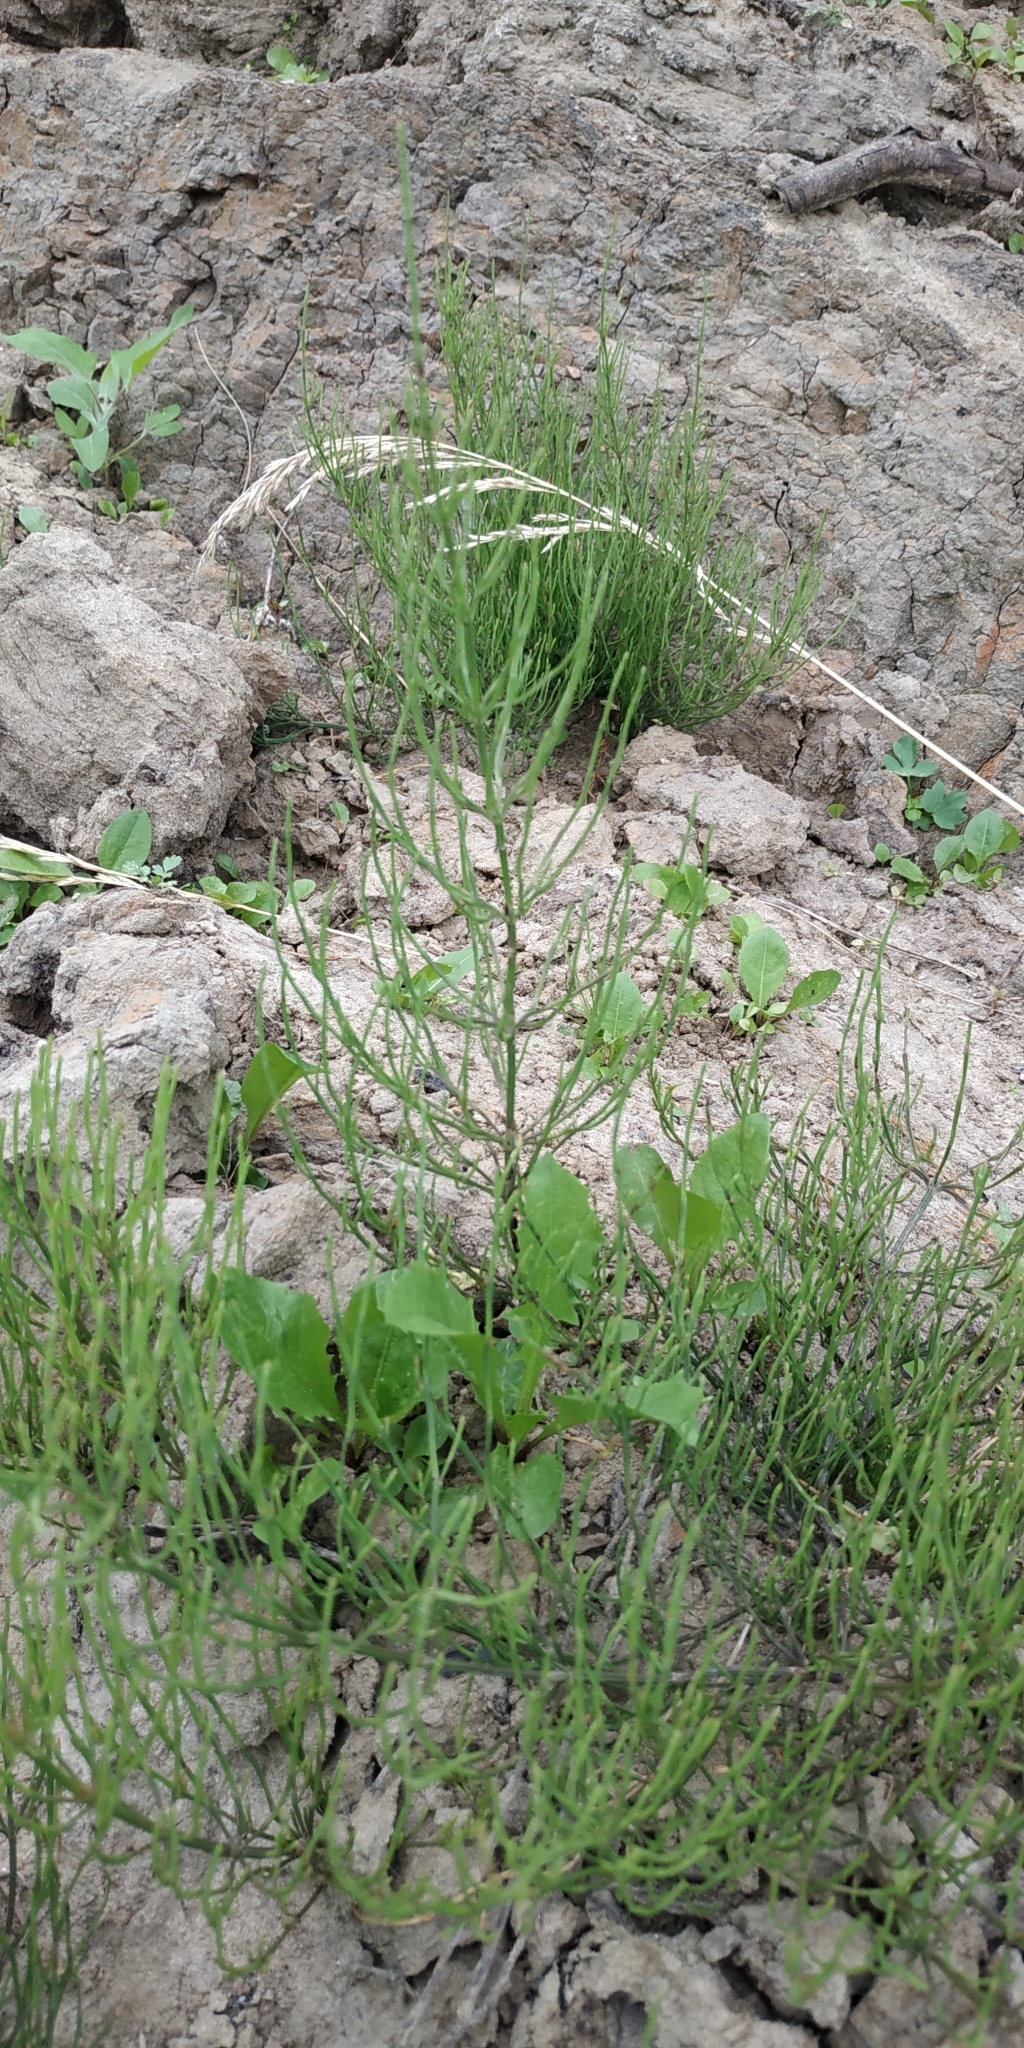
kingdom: Plantae
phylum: Tracheophyta
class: Polypodiopsida
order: Equisetales
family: Equisetaceae
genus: Equisetum
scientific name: Equisetum arvense
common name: Field horsetail
